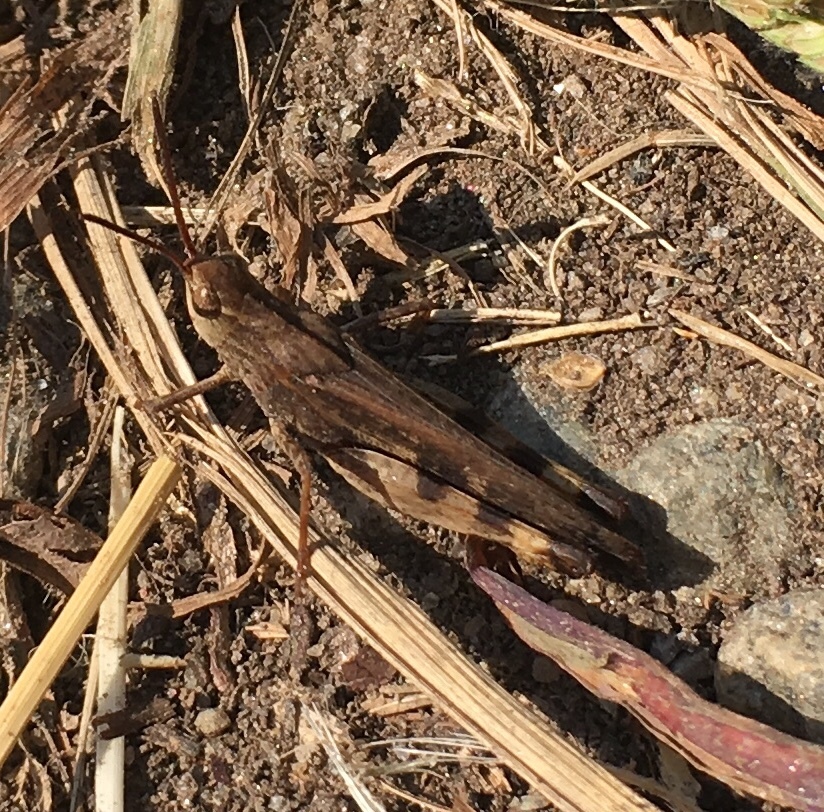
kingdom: Animalia
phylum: Arthropoda
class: Insecta
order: Orthoptera
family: Acrididae
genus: Chortophaga
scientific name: Chortophaga viridifasciata
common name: Green-striped grasshopper
